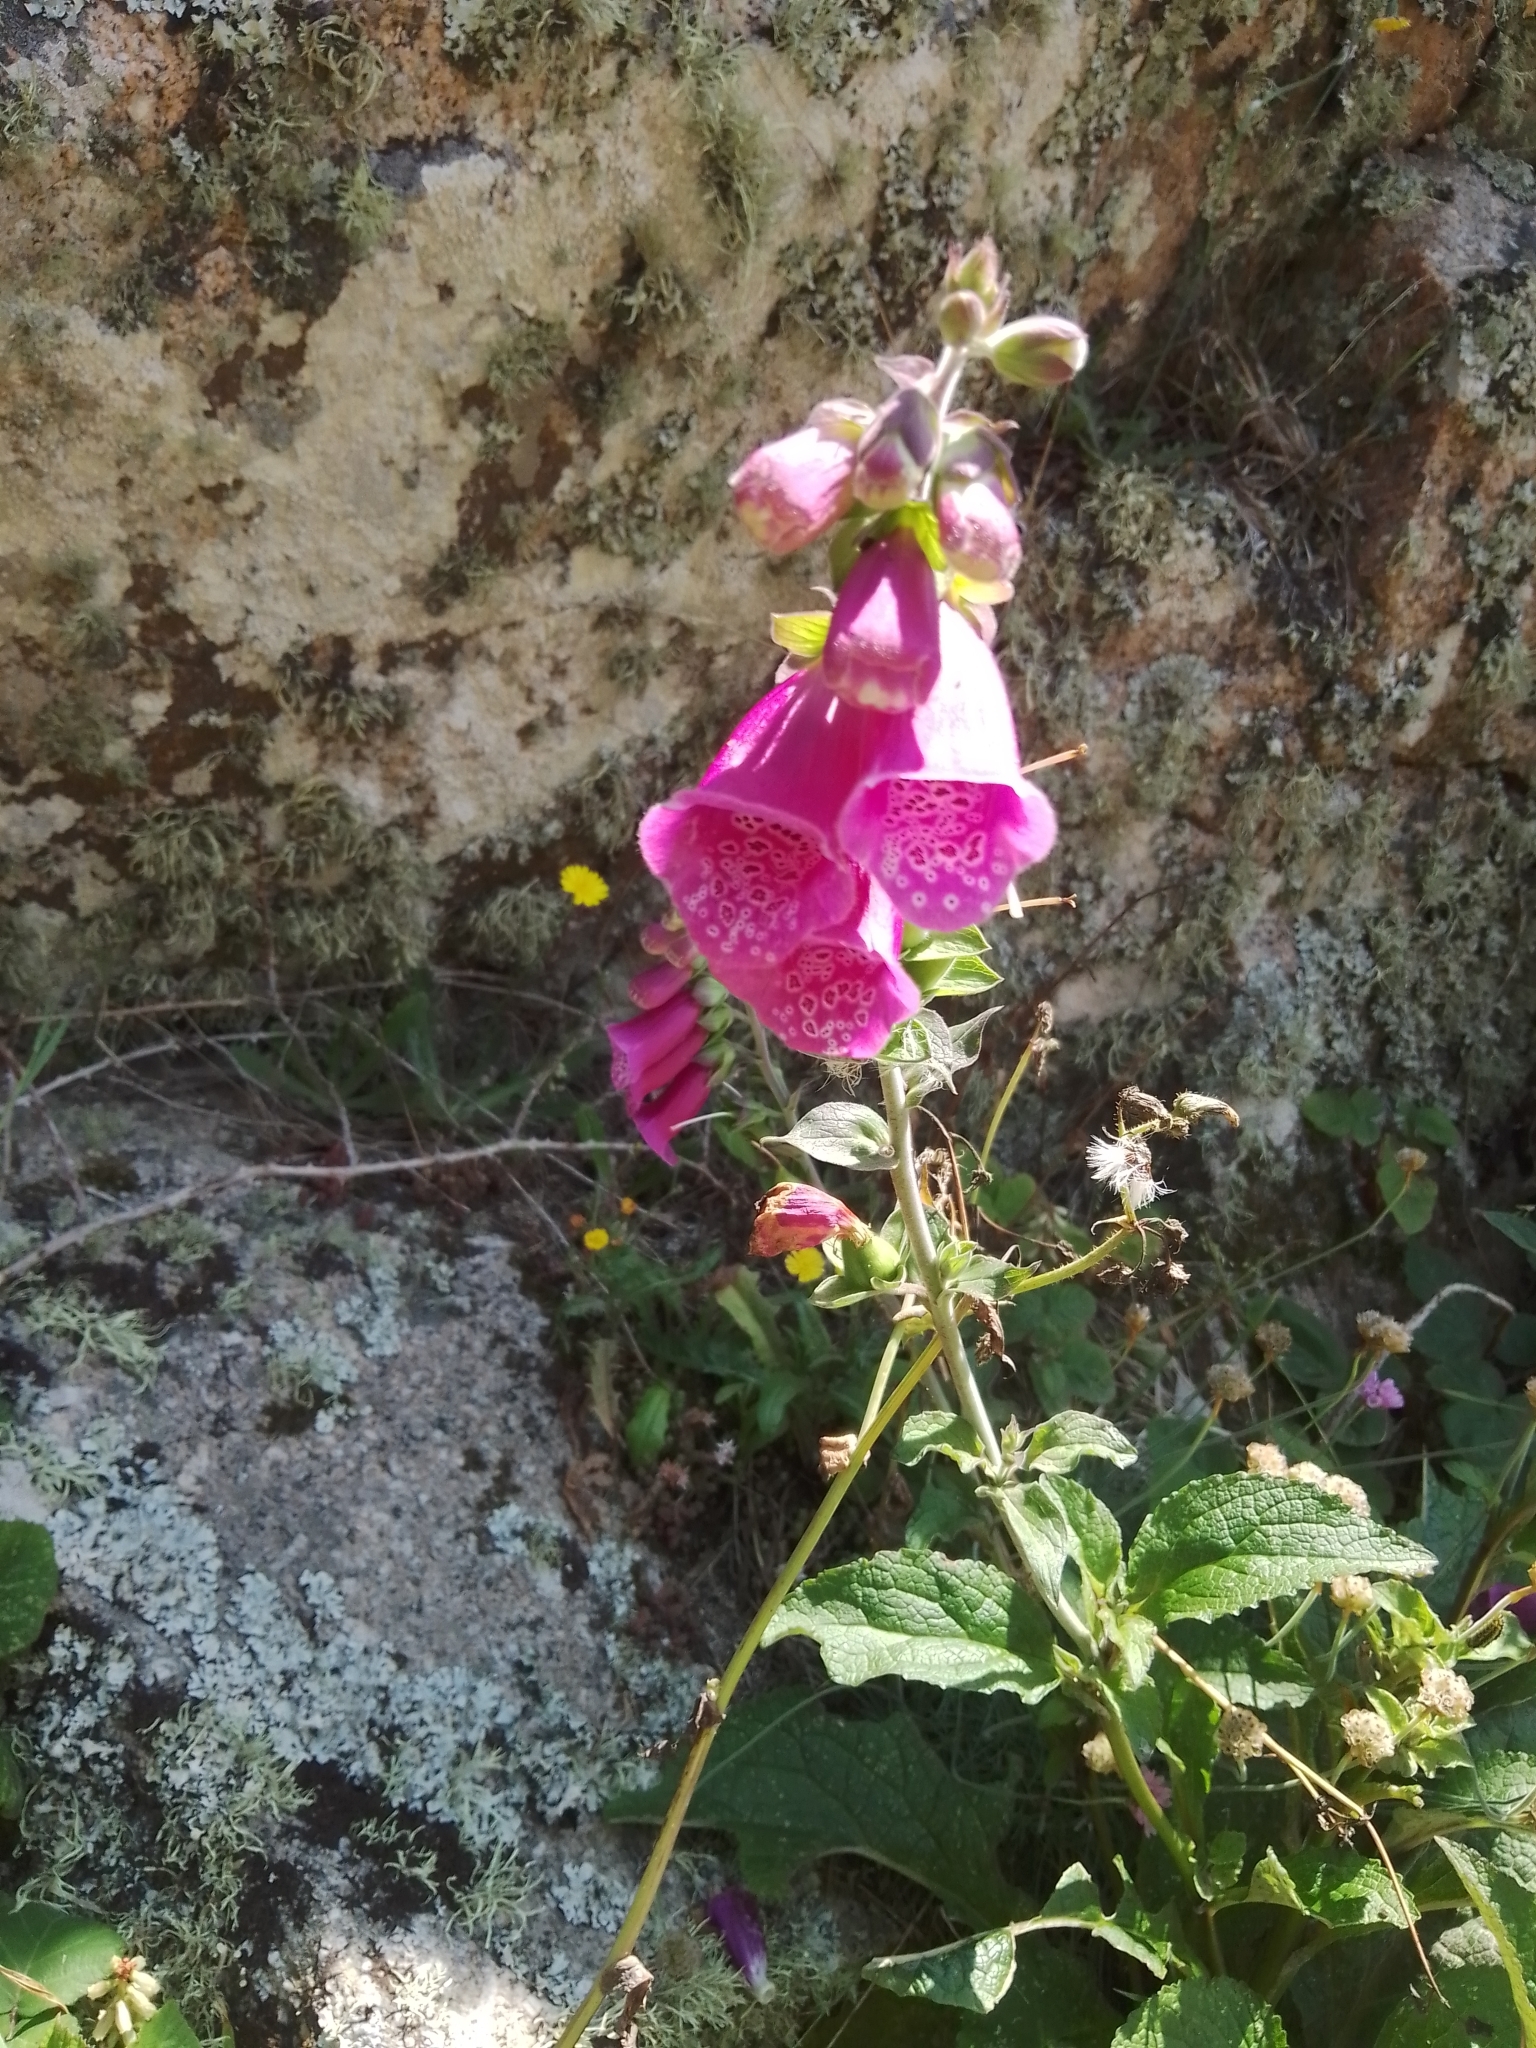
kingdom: Plantae
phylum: Tracheophyta
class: Magnoliopsida
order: Lamiales
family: Plantaginaceae
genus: Digitalis
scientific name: Digitalis purpurea
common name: Foxglove
